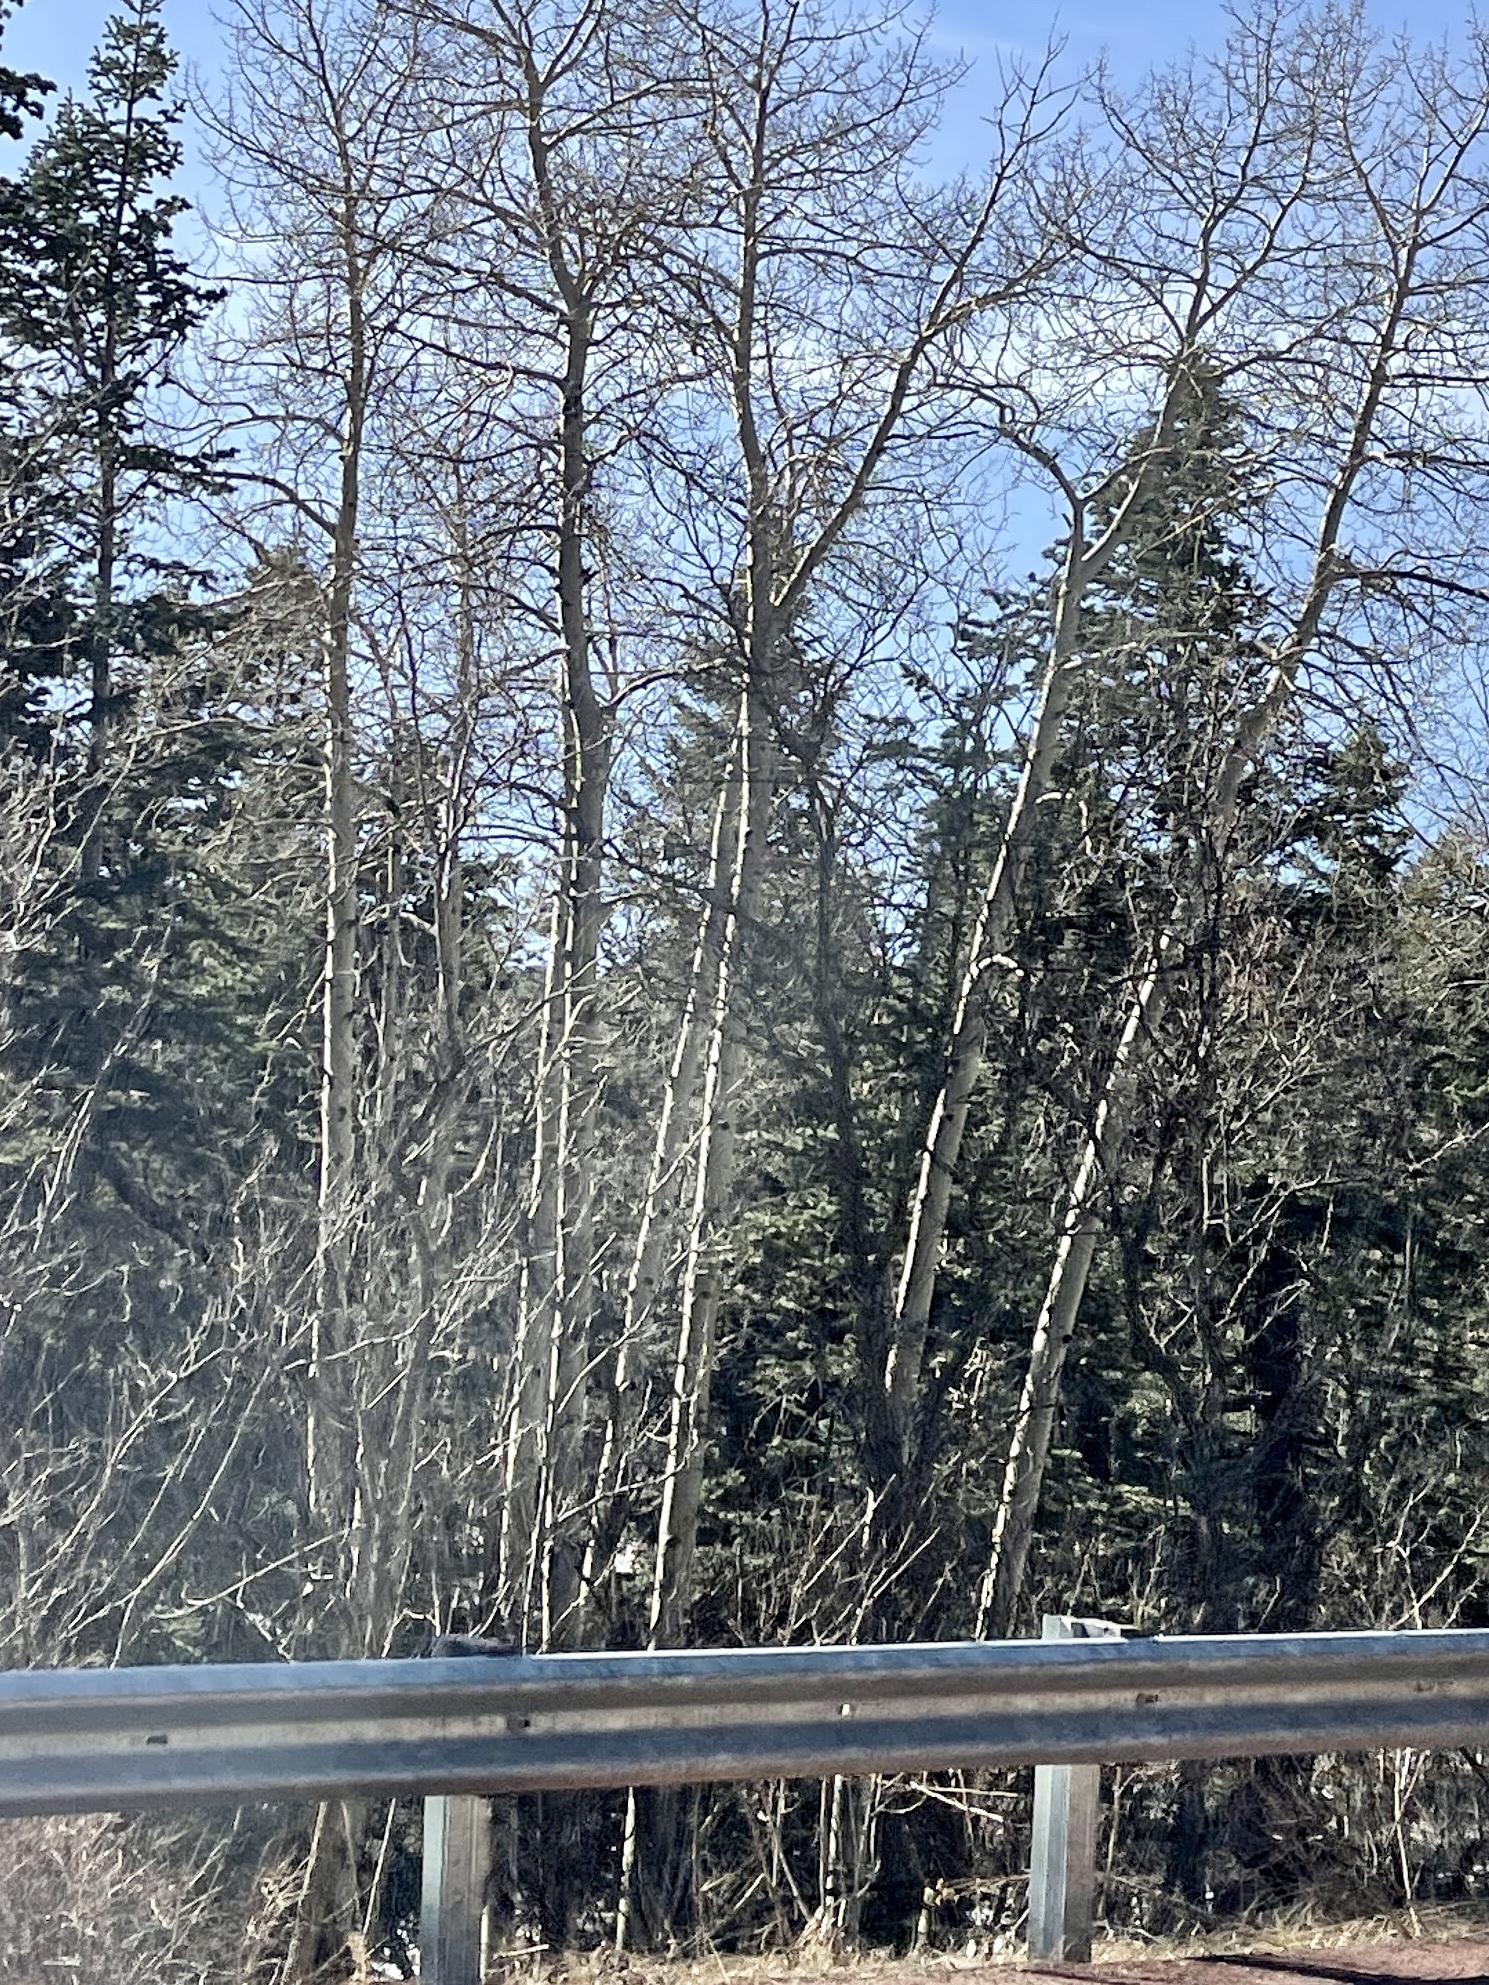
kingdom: Plantae
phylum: Tracheophyta
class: Magnoliopsida
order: Malpighiales
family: Salicaceae
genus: Populus
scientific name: Populus tremuloides
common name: Quaking aspen
